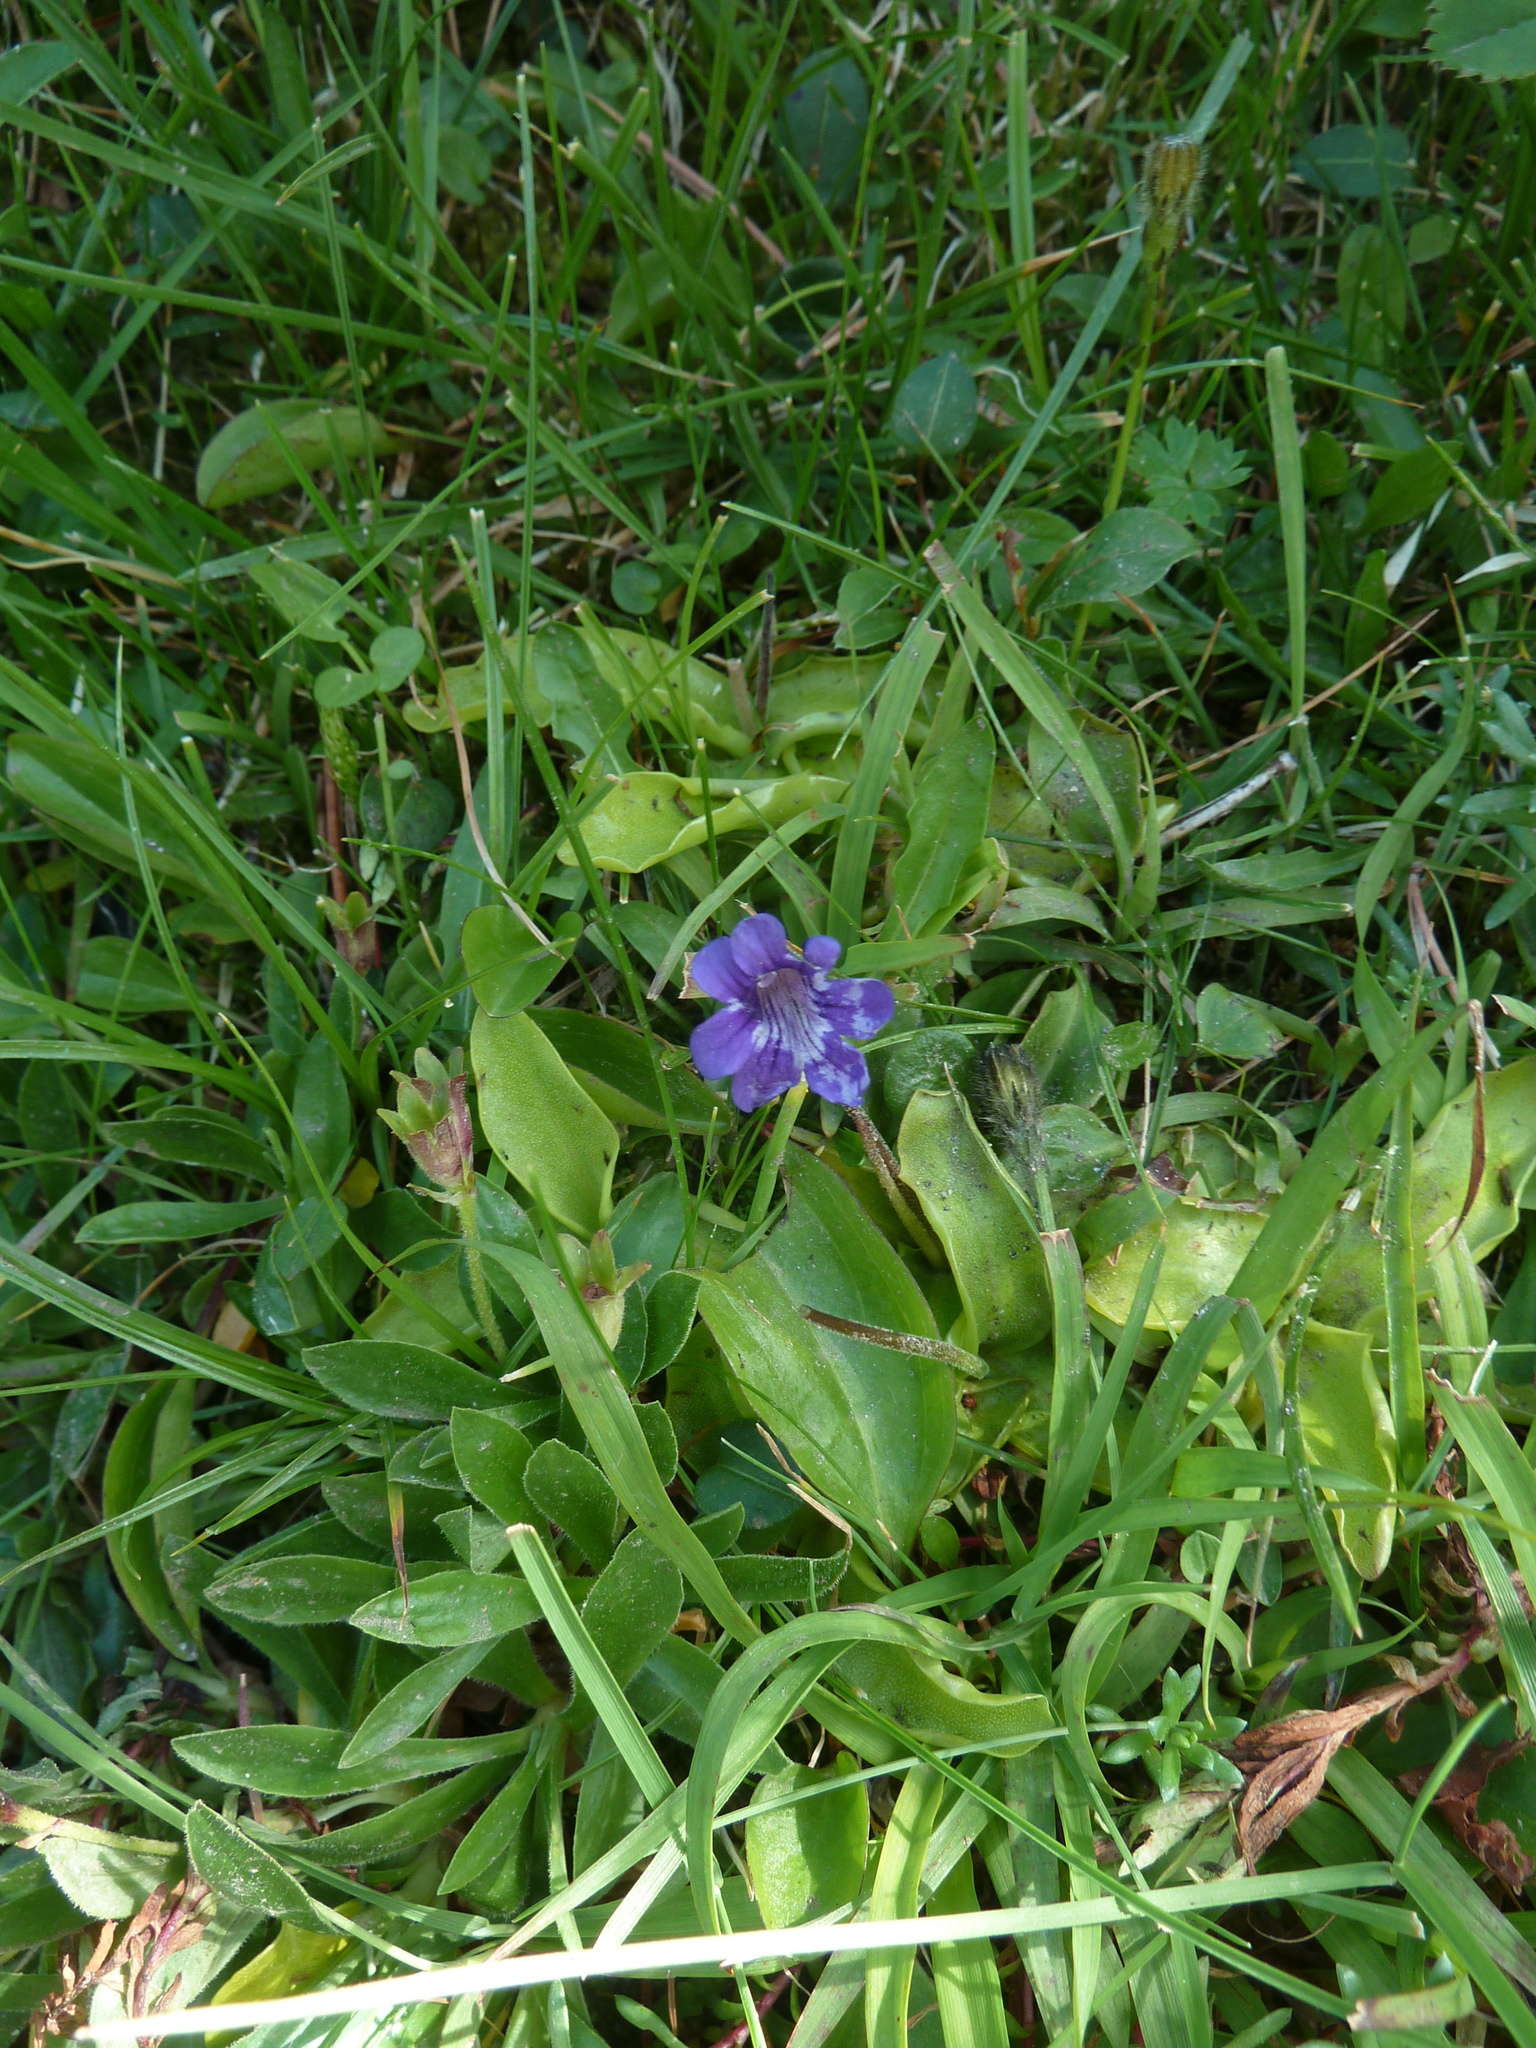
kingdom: Plantae
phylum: Tracheophyta
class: Magnoliopsida
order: Lamiales
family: Lentibulariaceae
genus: Pinguicula
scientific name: Pinguicula grandiflora
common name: Large-flowered butterwort
